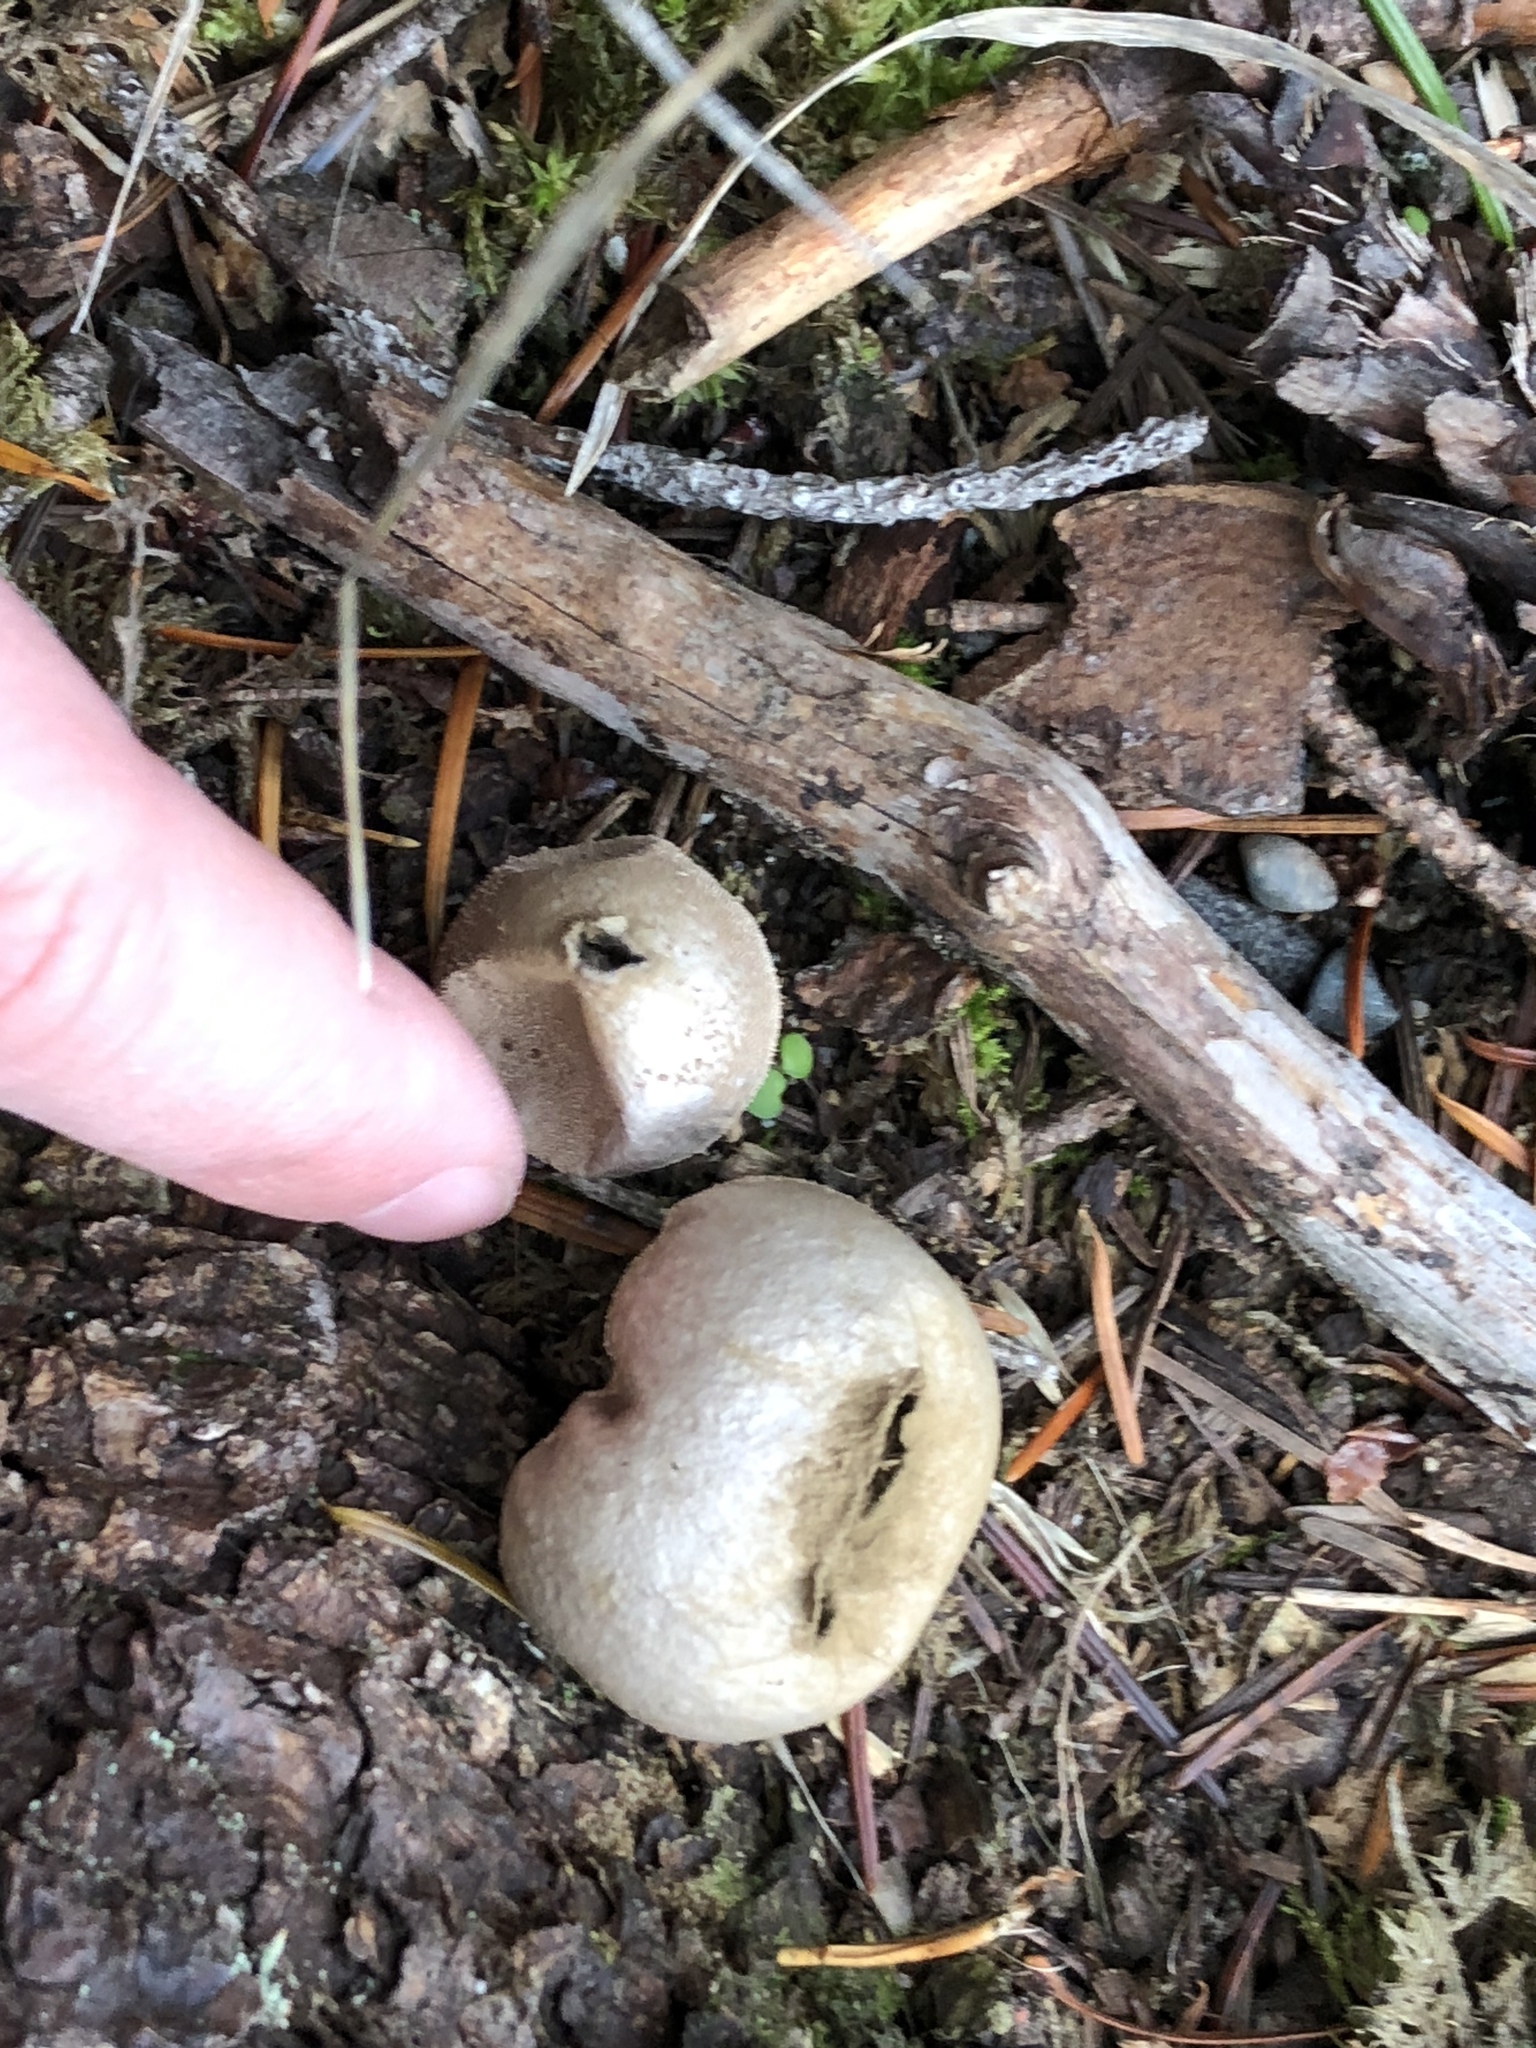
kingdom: Fungi
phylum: Basidiomycota
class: Agaricomycetes
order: Agaricales
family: Lycoperdaceae
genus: Apioperdon
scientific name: Apioperdon pyriforme
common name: Pear-shaped puffball
